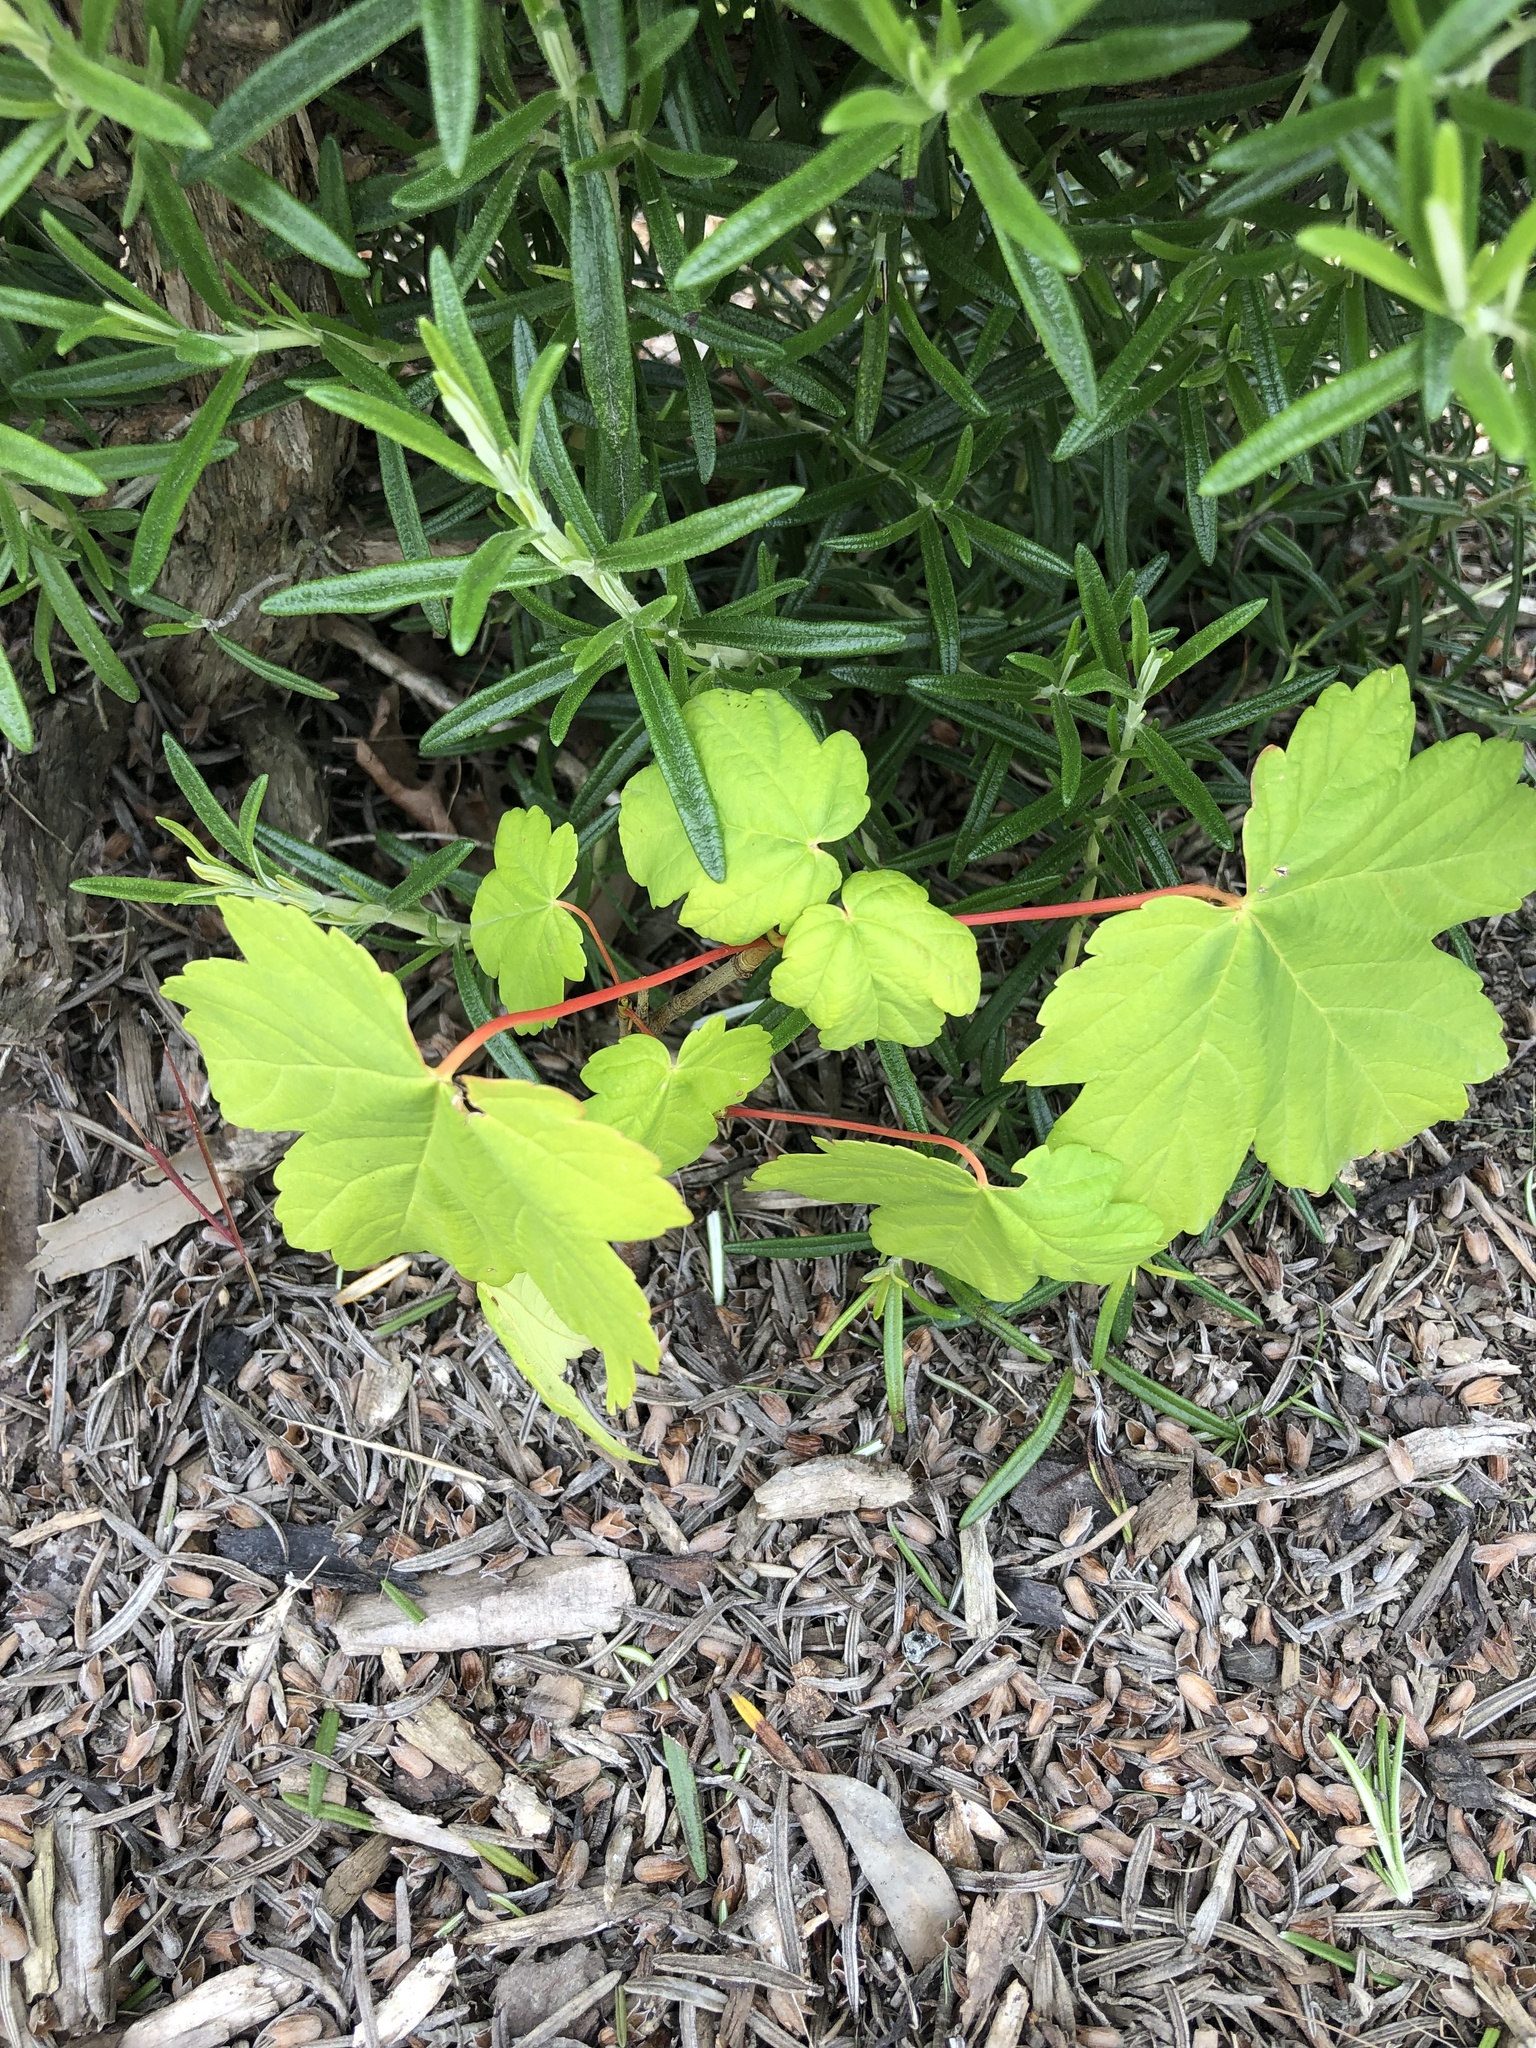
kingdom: Plantae
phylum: Tracheophyta
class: Magnoliopsida
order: Sapindales
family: Sapindaceae
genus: Acer
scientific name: Acer pseudoplatanus
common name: Sycamore
